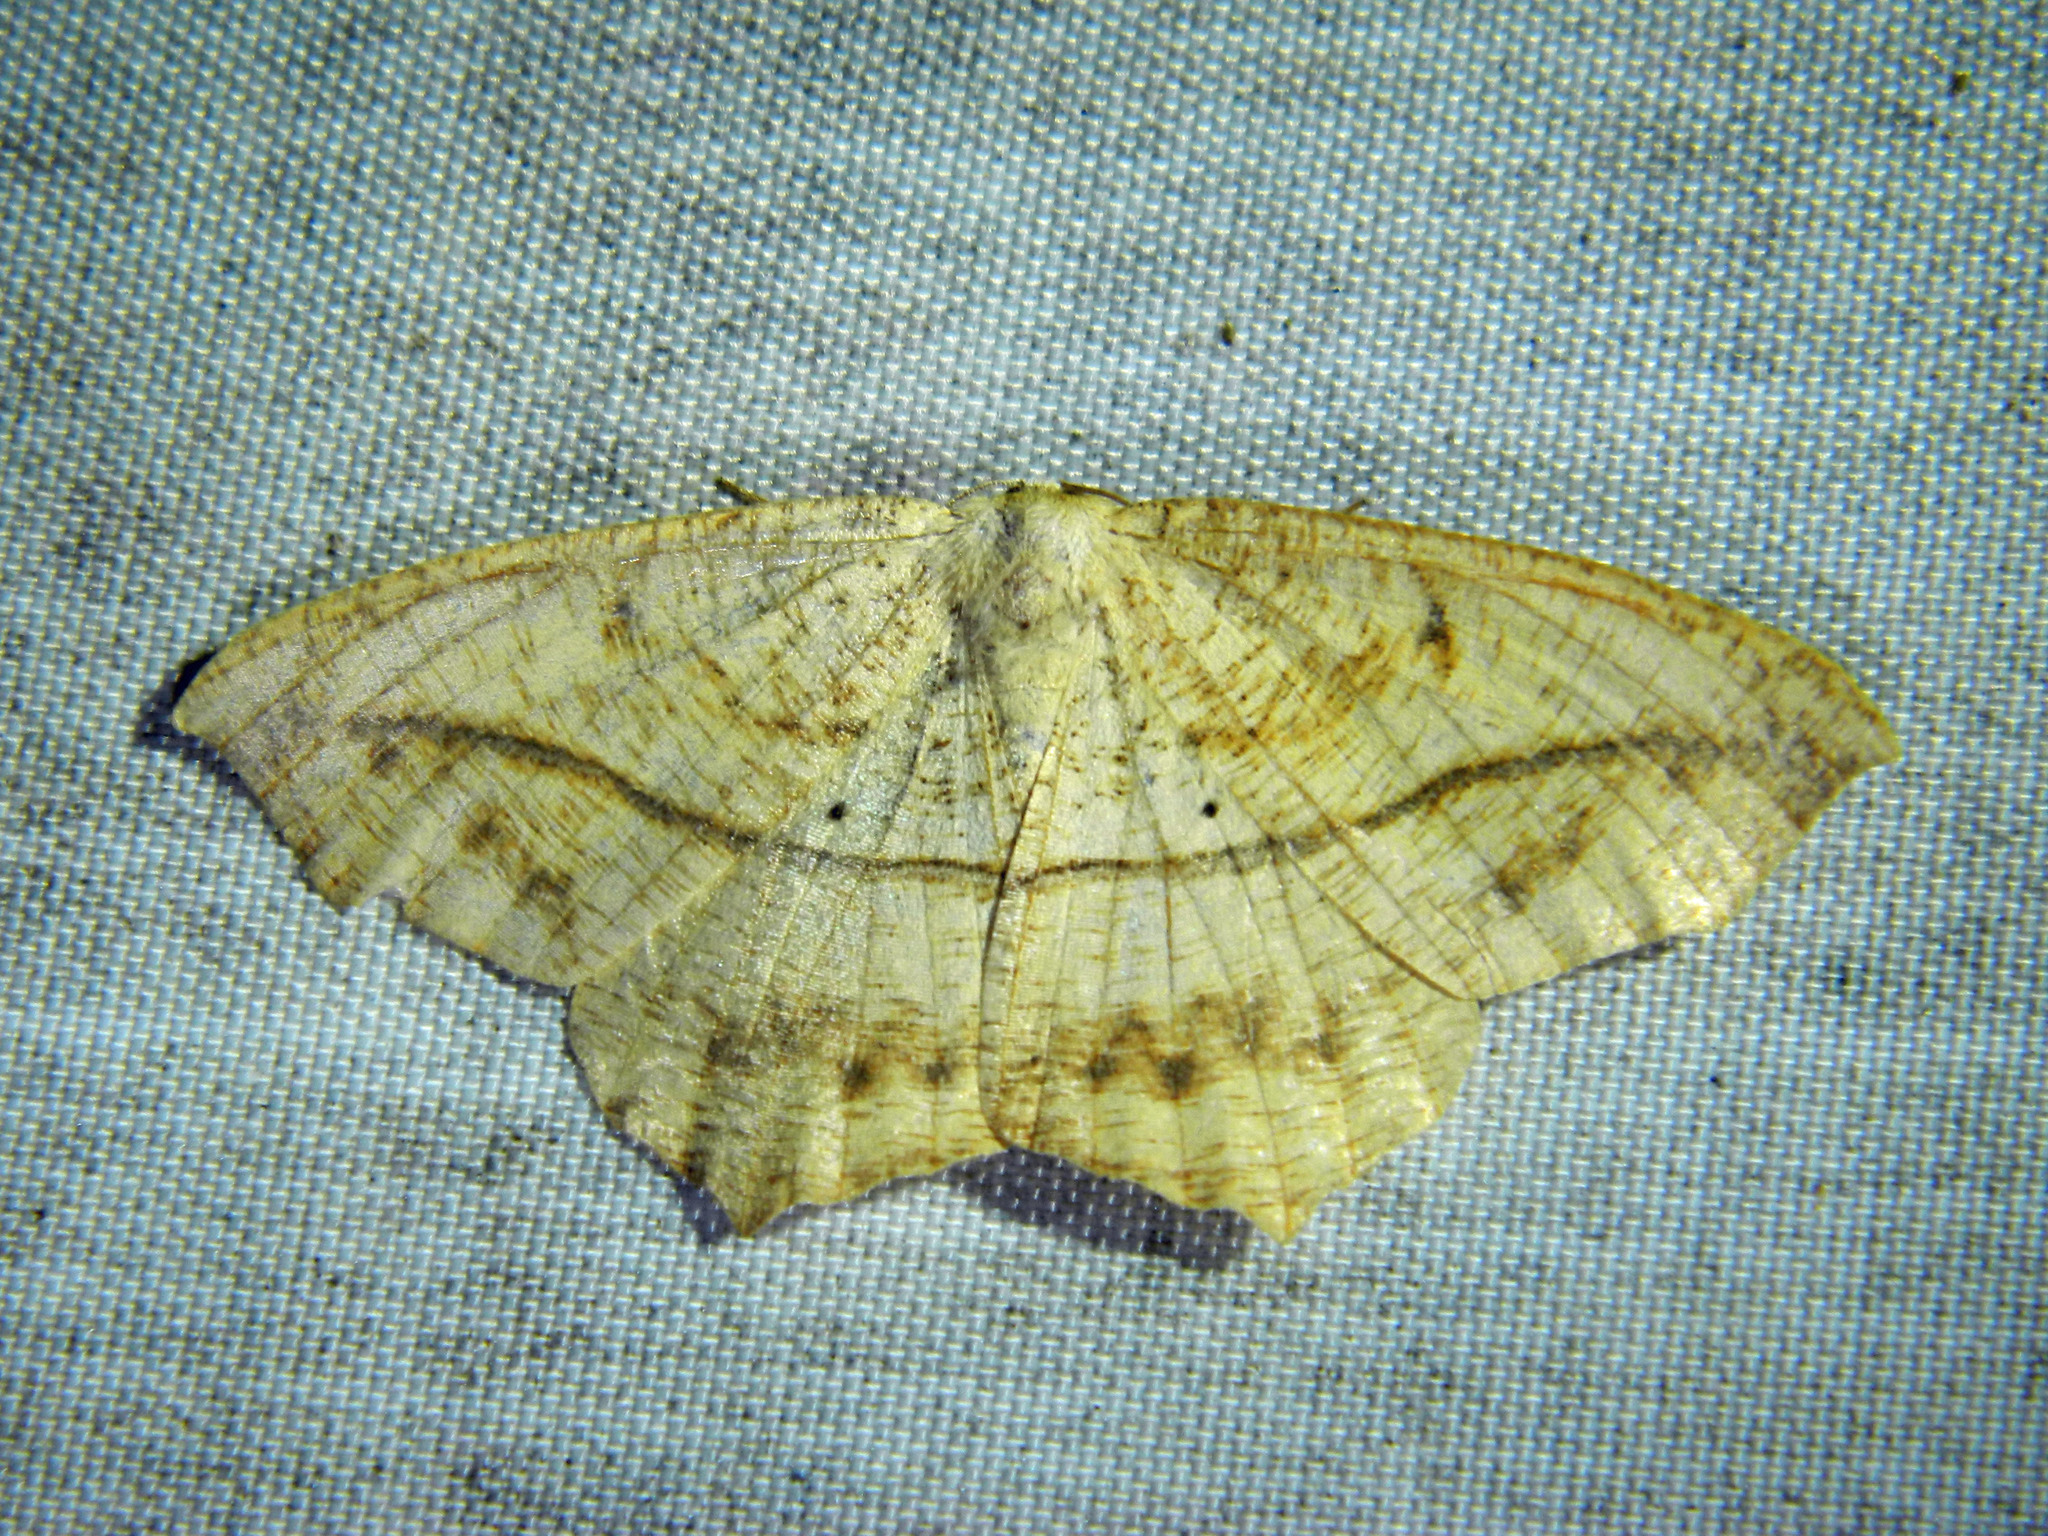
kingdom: Animalia
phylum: Arthropoda
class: Insecta
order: Lepidoptera
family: Geometridae
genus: Prochoerodes
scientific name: Prochoerodes lineola
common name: Large maple spanworm
